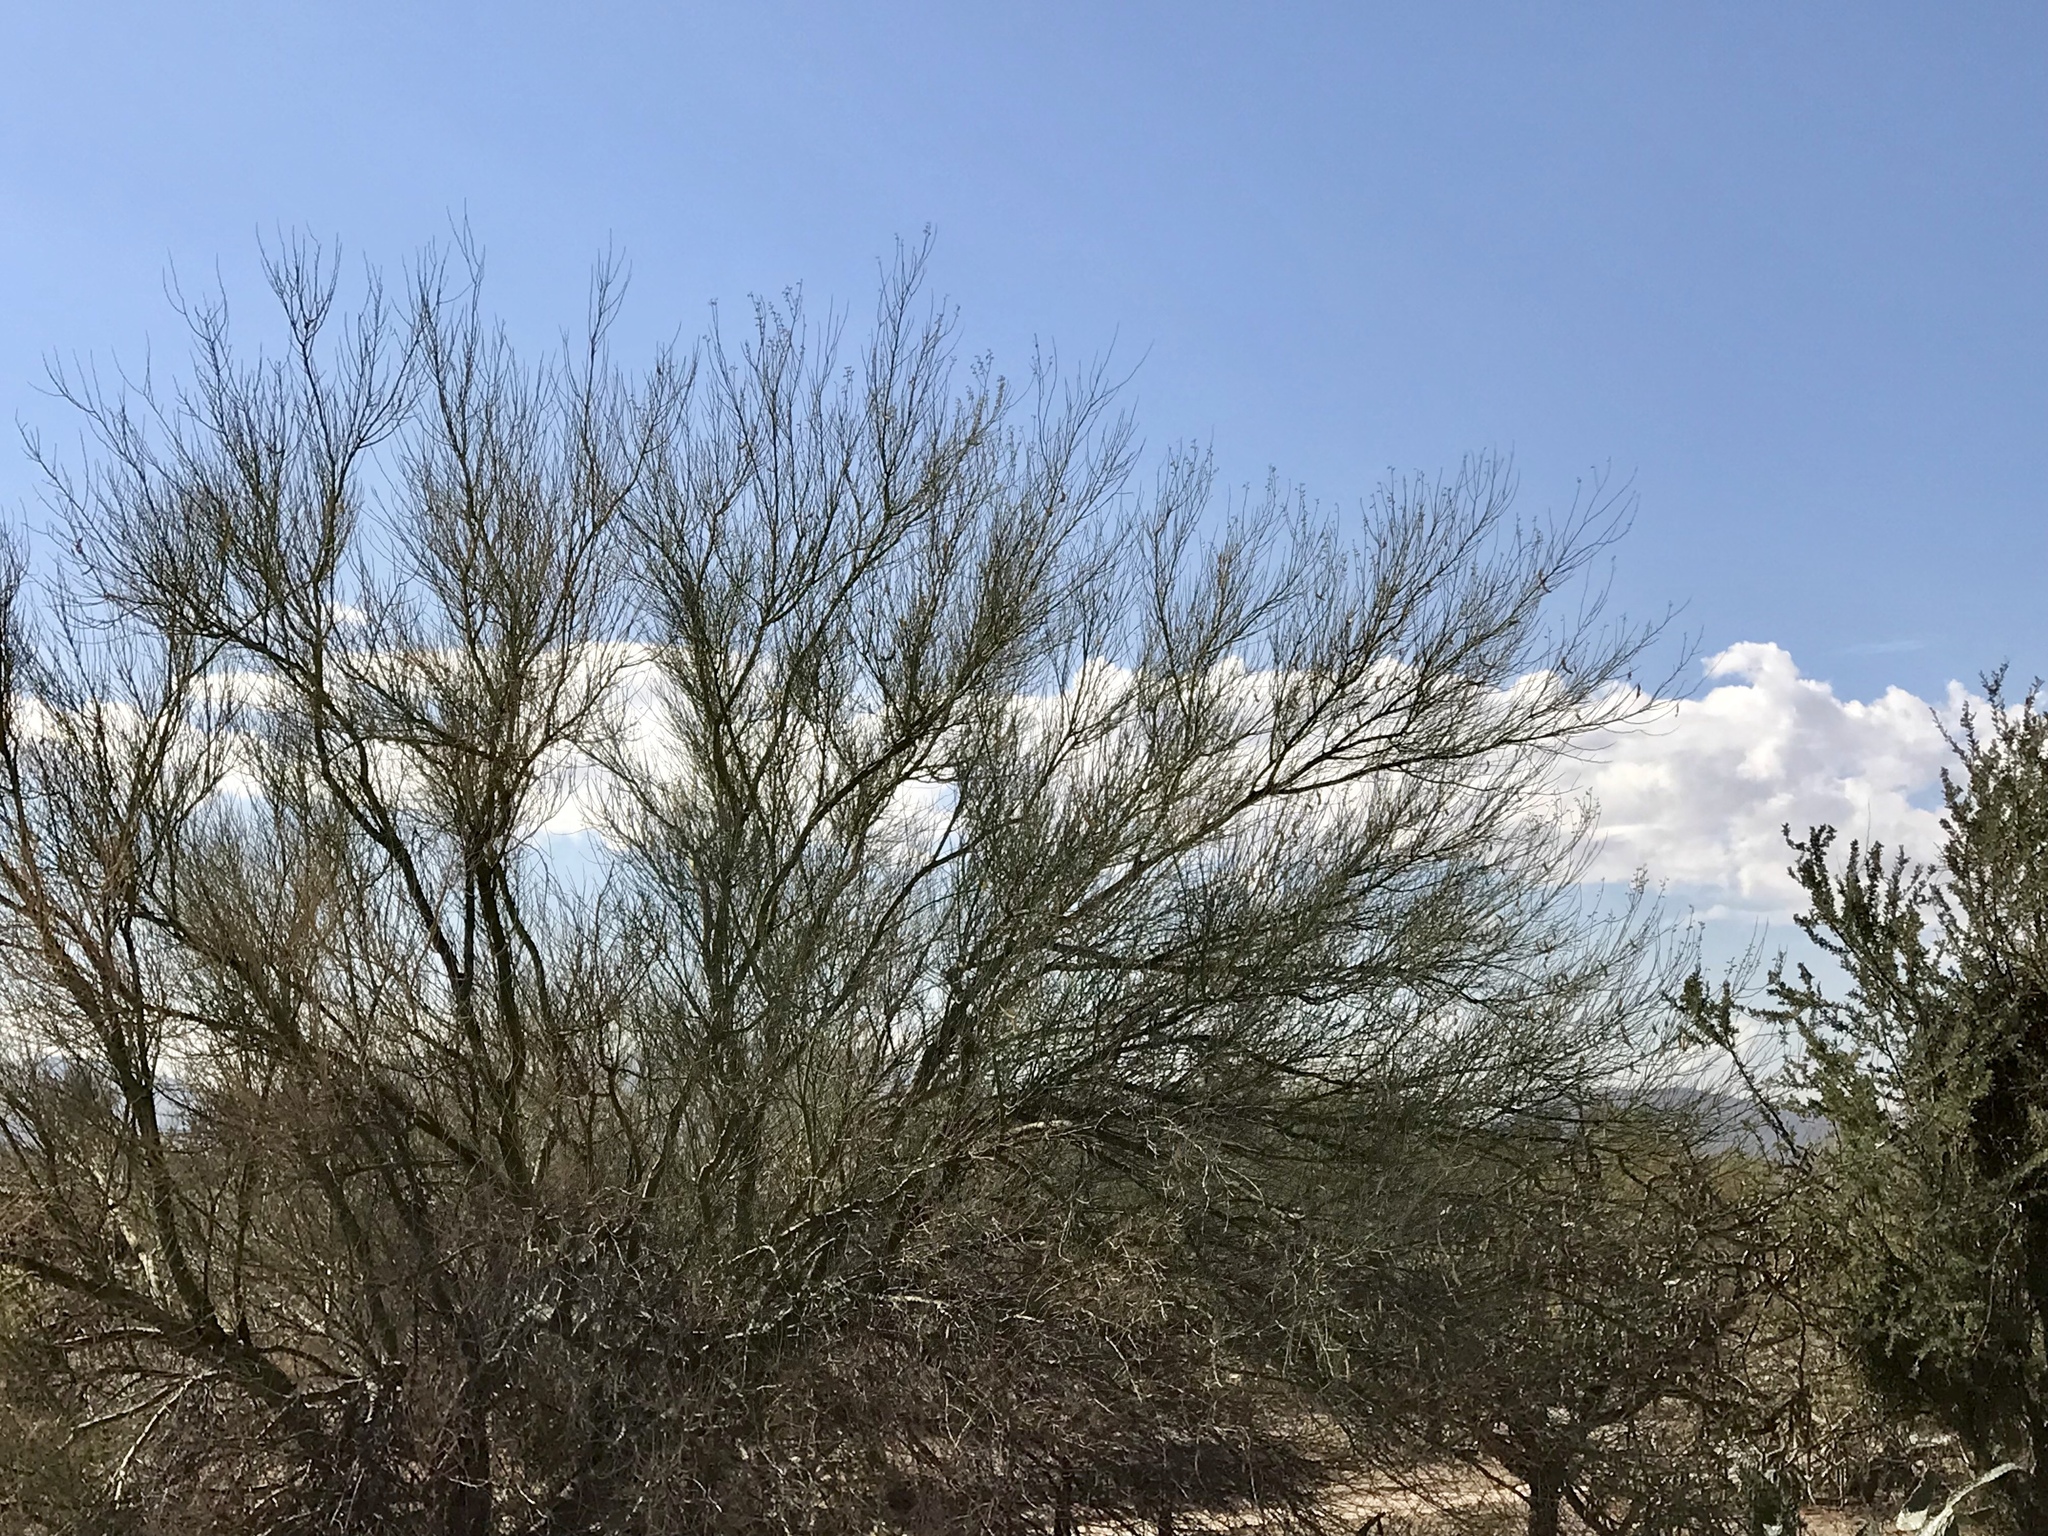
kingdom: Plantae
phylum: Tracheophyta
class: Magnoliopsida
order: Fabales
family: Fabaceae
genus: Parkinsonia
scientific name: Parkinsonia microphylla
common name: Yellow paloverde
